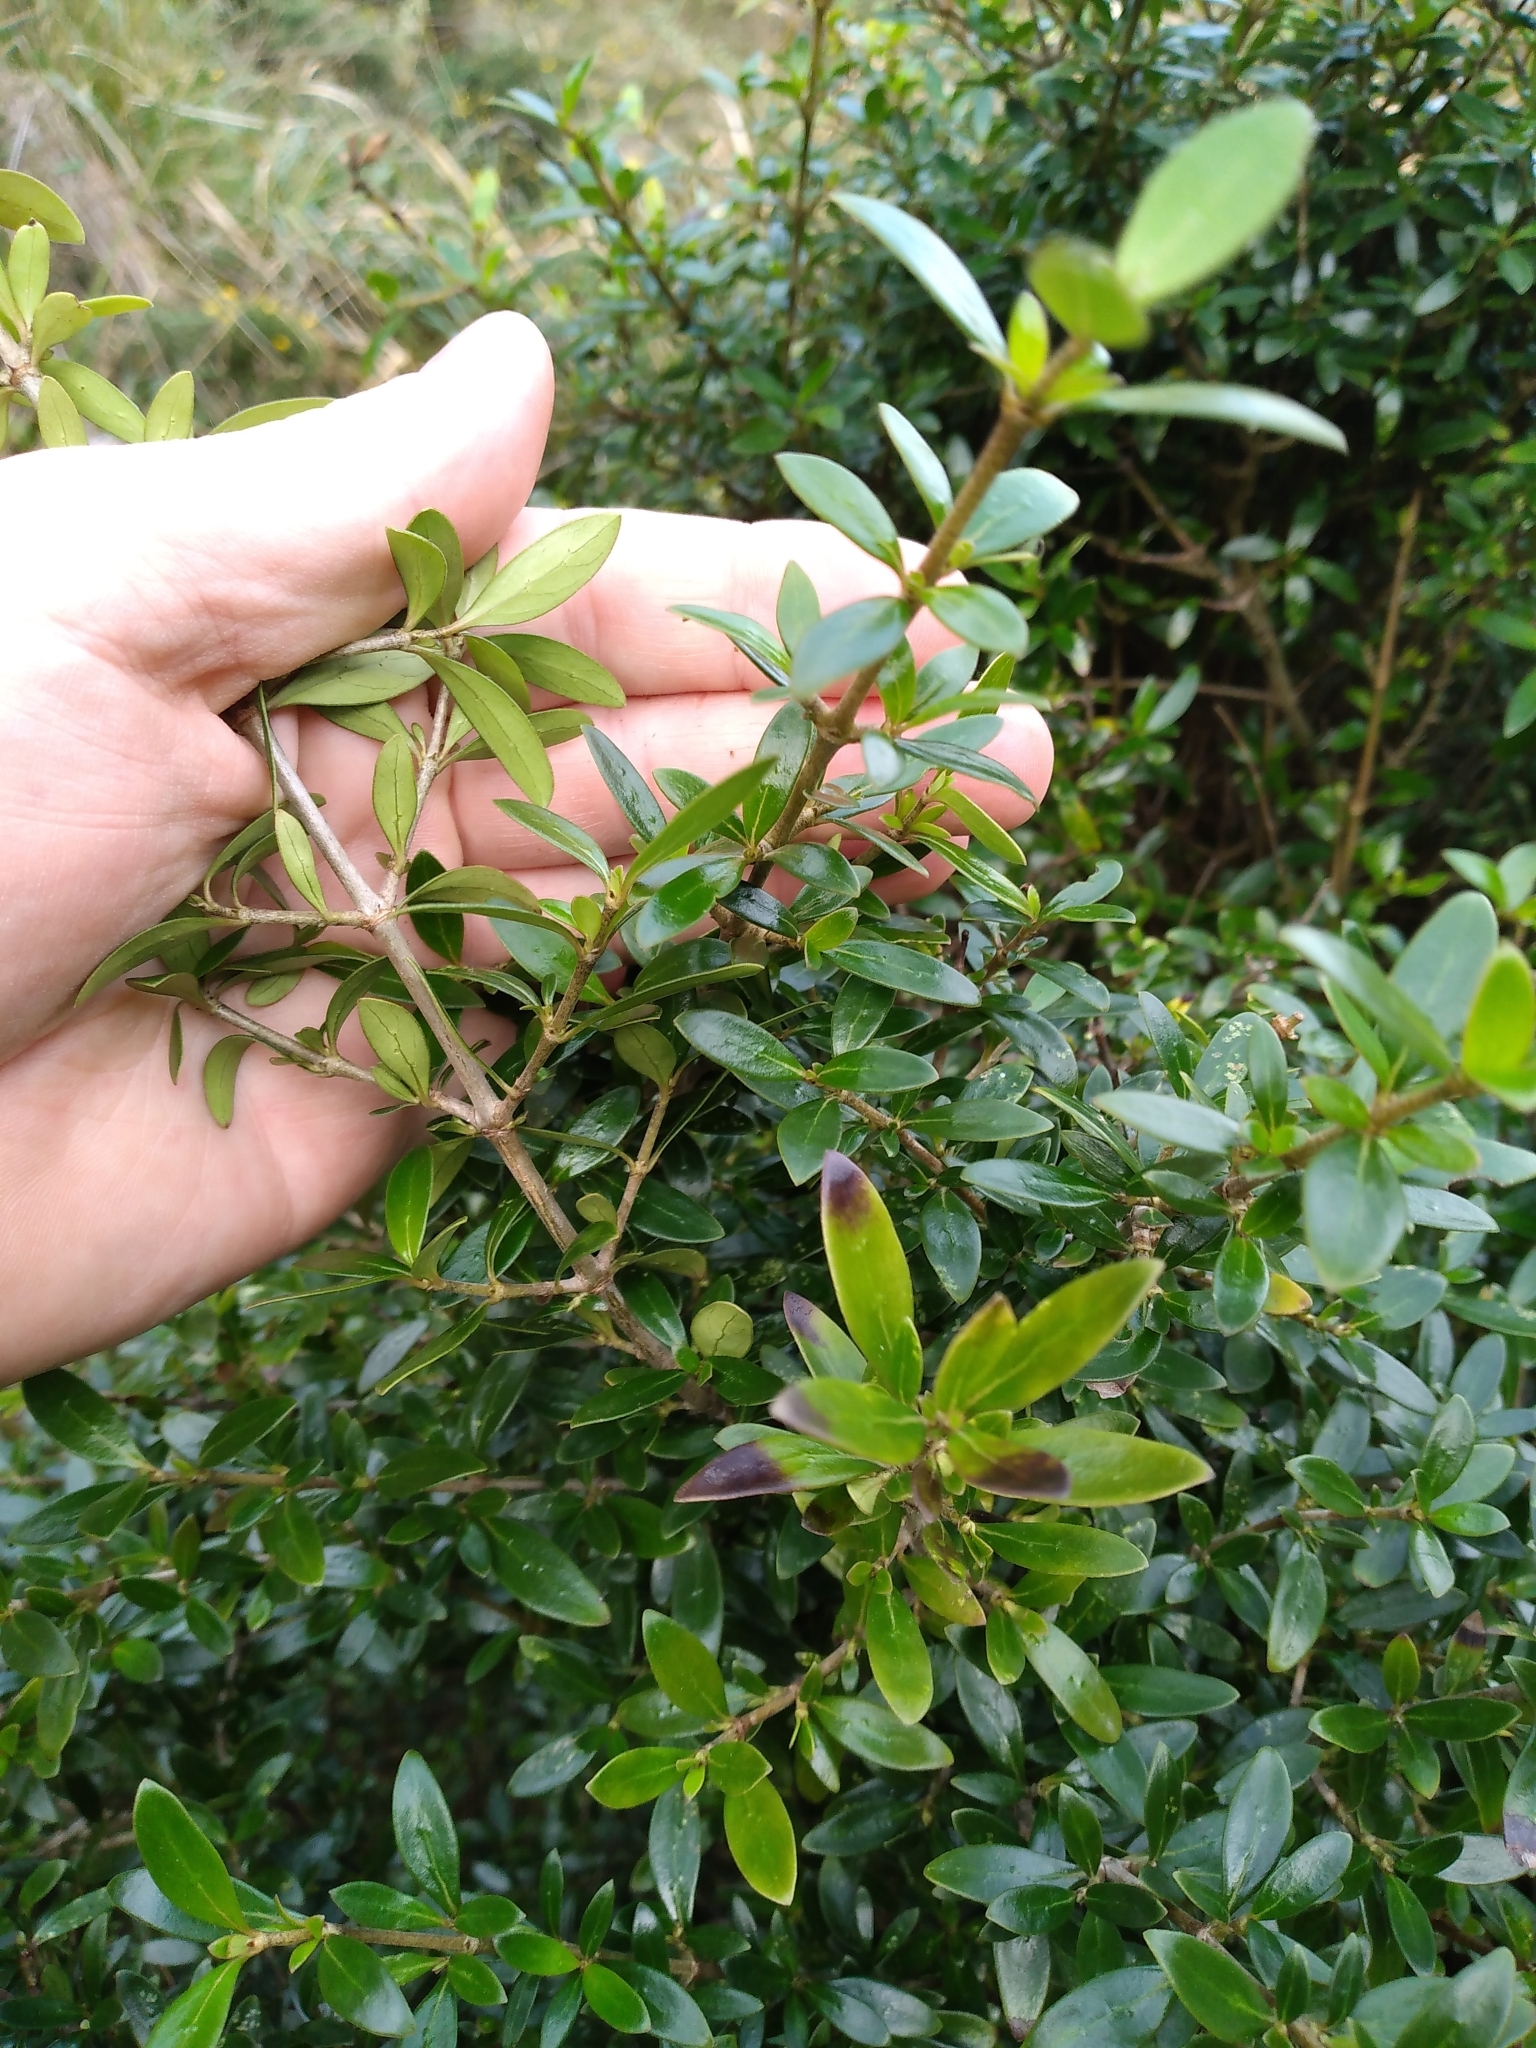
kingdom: Plantae
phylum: Tracheophyta
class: Magnoliopsida
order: Gentianales
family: Rubiaceae
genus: Coprosma
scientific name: Coprosma cunninghamii
